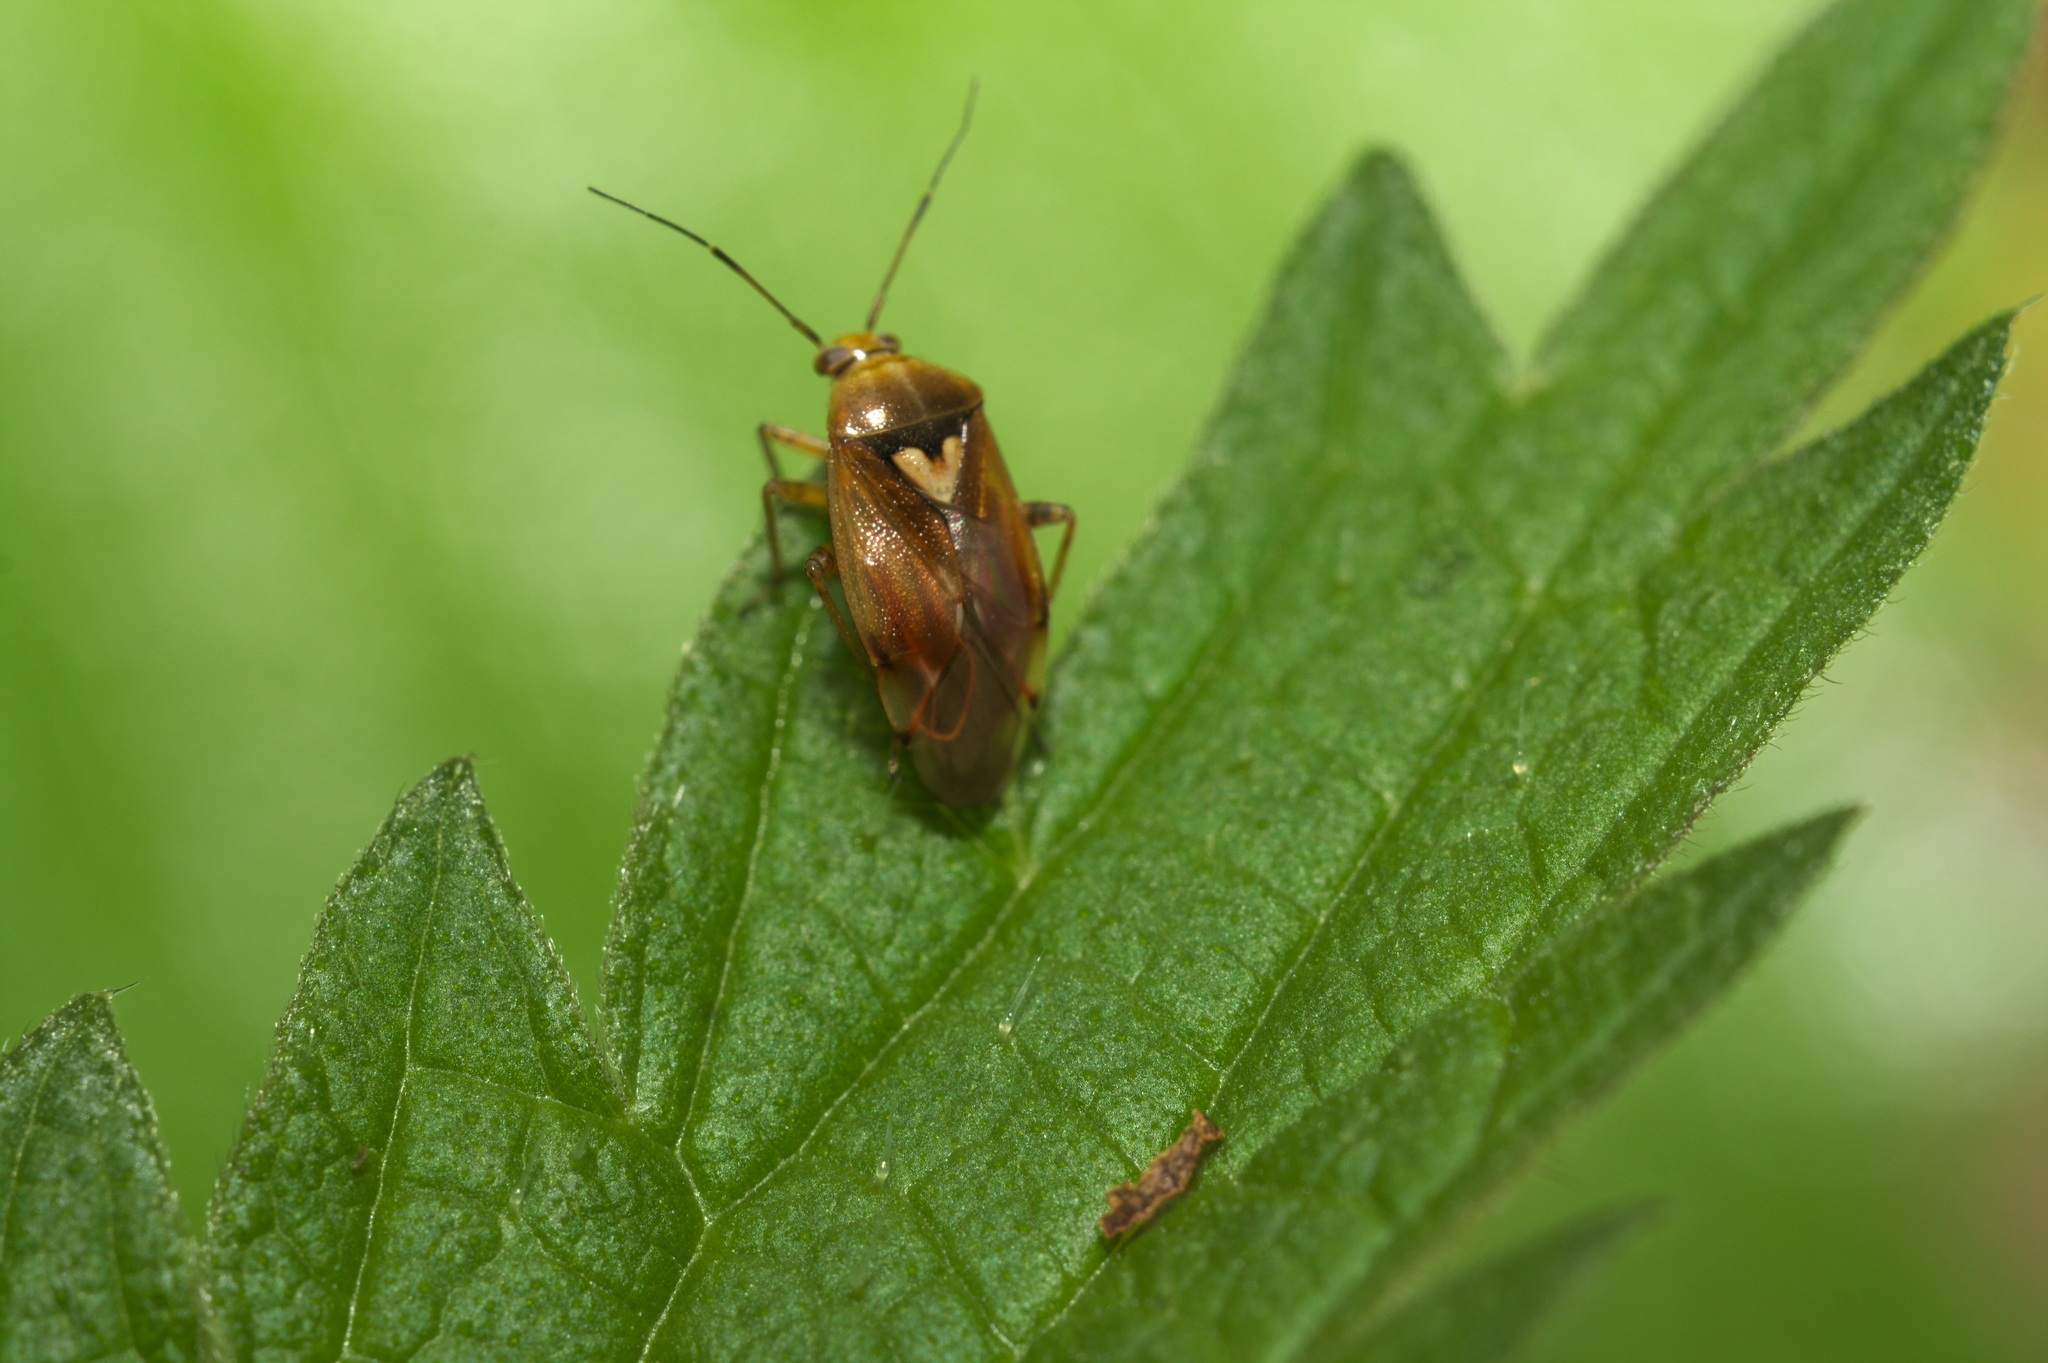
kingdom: Animalia
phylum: Arthropoda
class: Insecta
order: Hemiptera
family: Miridae
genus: Lygus
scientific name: Lygus pratensis
